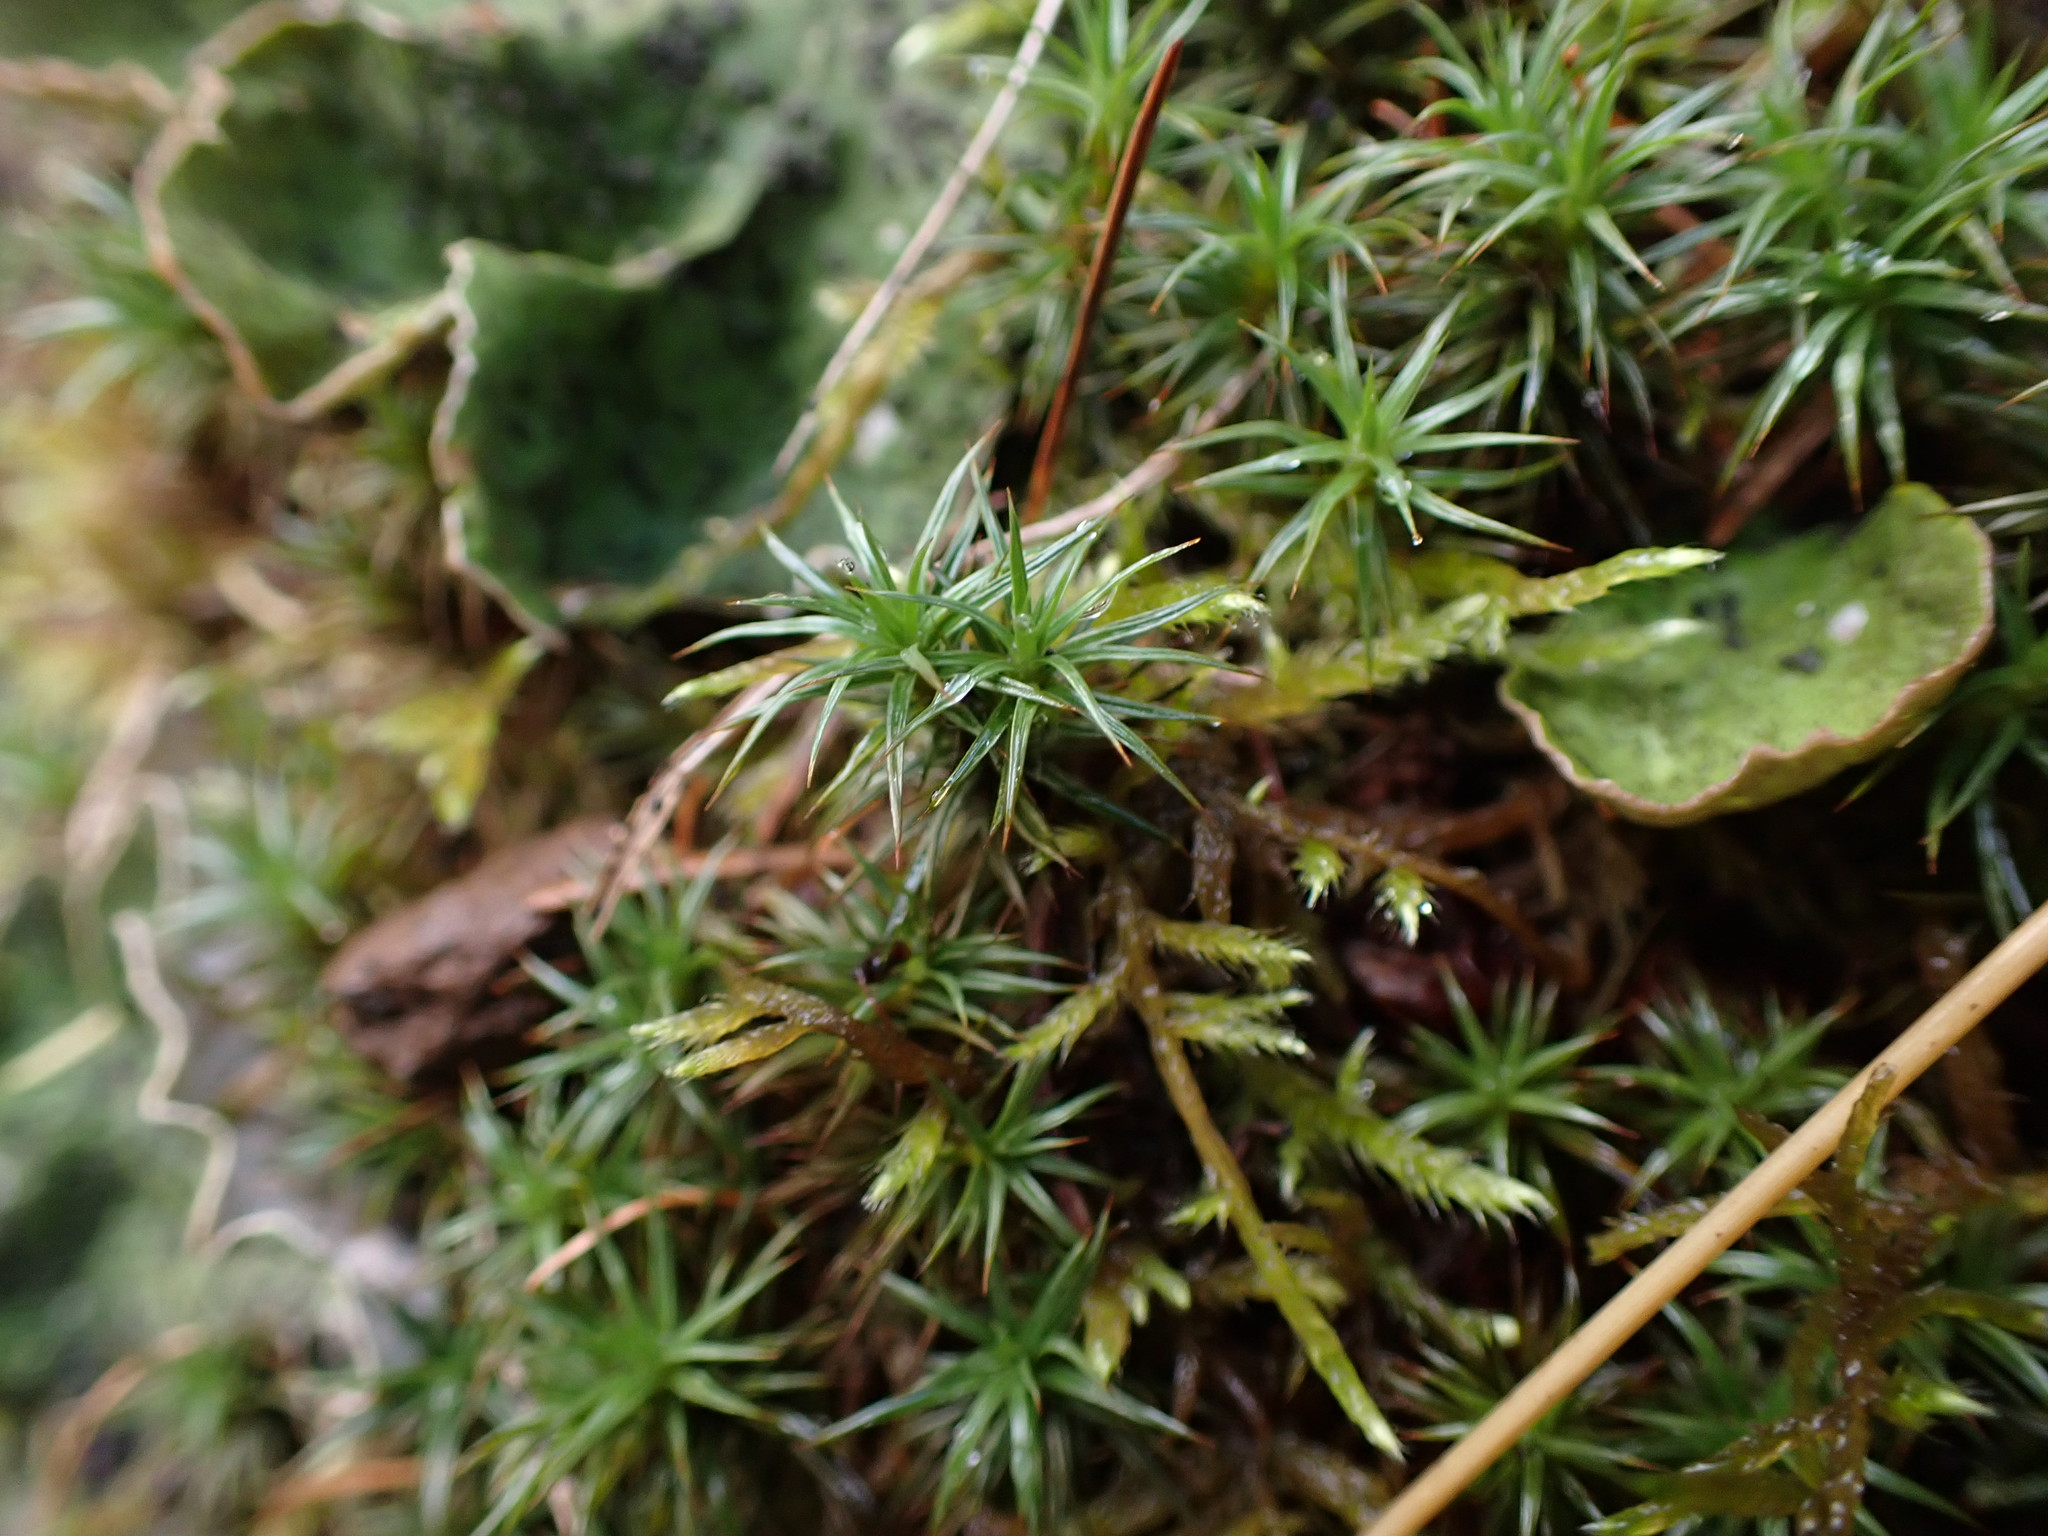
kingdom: Plantae
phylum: Bryophyta
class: Polytrichopsida
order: Polytrichales
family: Polytrichaceae
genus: Polytrichum
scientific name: Polytrichum juniperinum
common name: Juniper haircap moss
